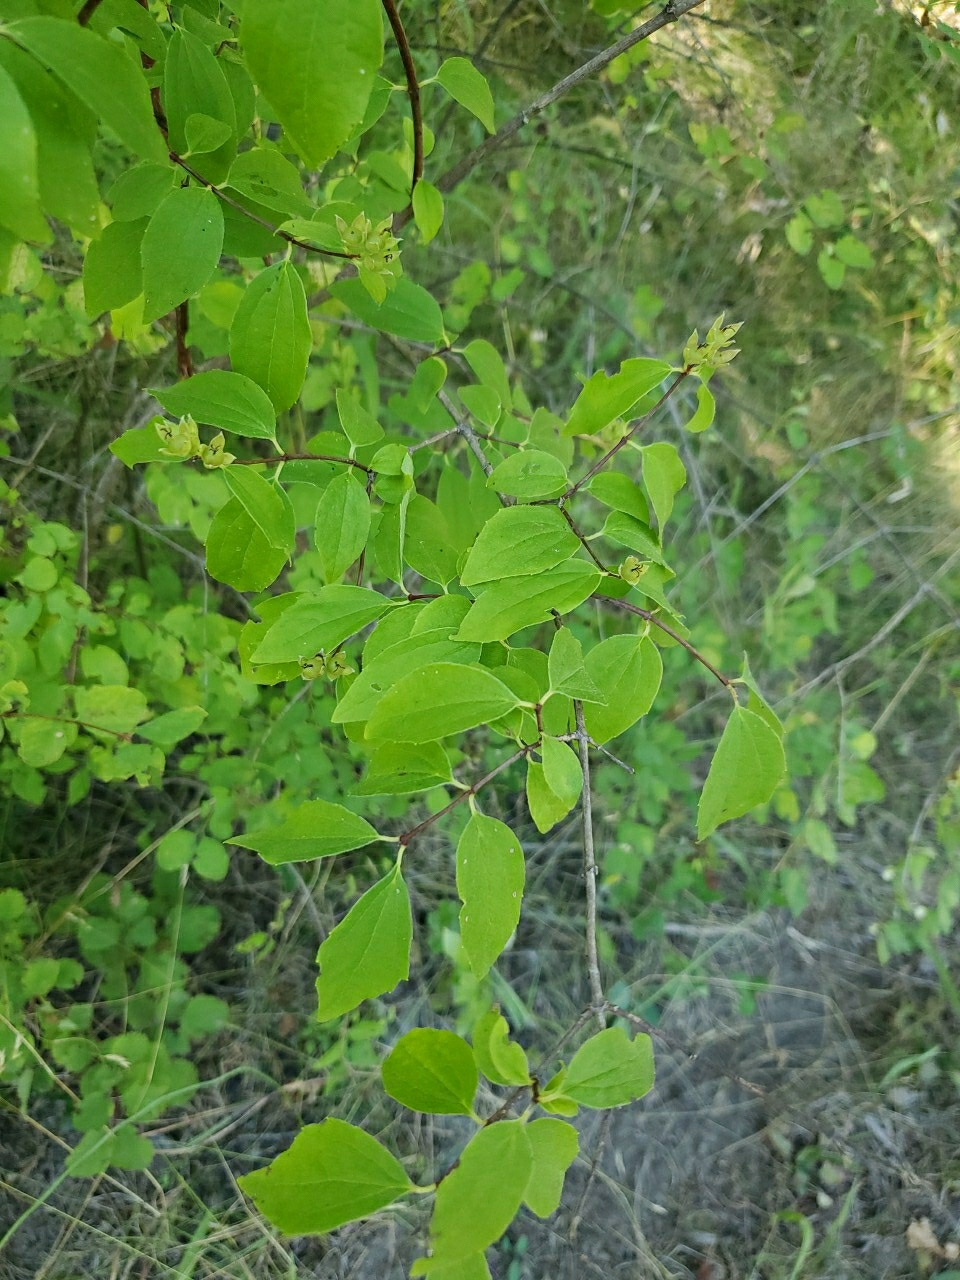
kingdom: Plantae
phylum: Tracheophyta
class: Magnoliopsida
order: Cornales
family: Hydrangeaceae
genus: Philadelphus
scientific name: Philadelphus lewisii
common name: Lewis's mock orange
